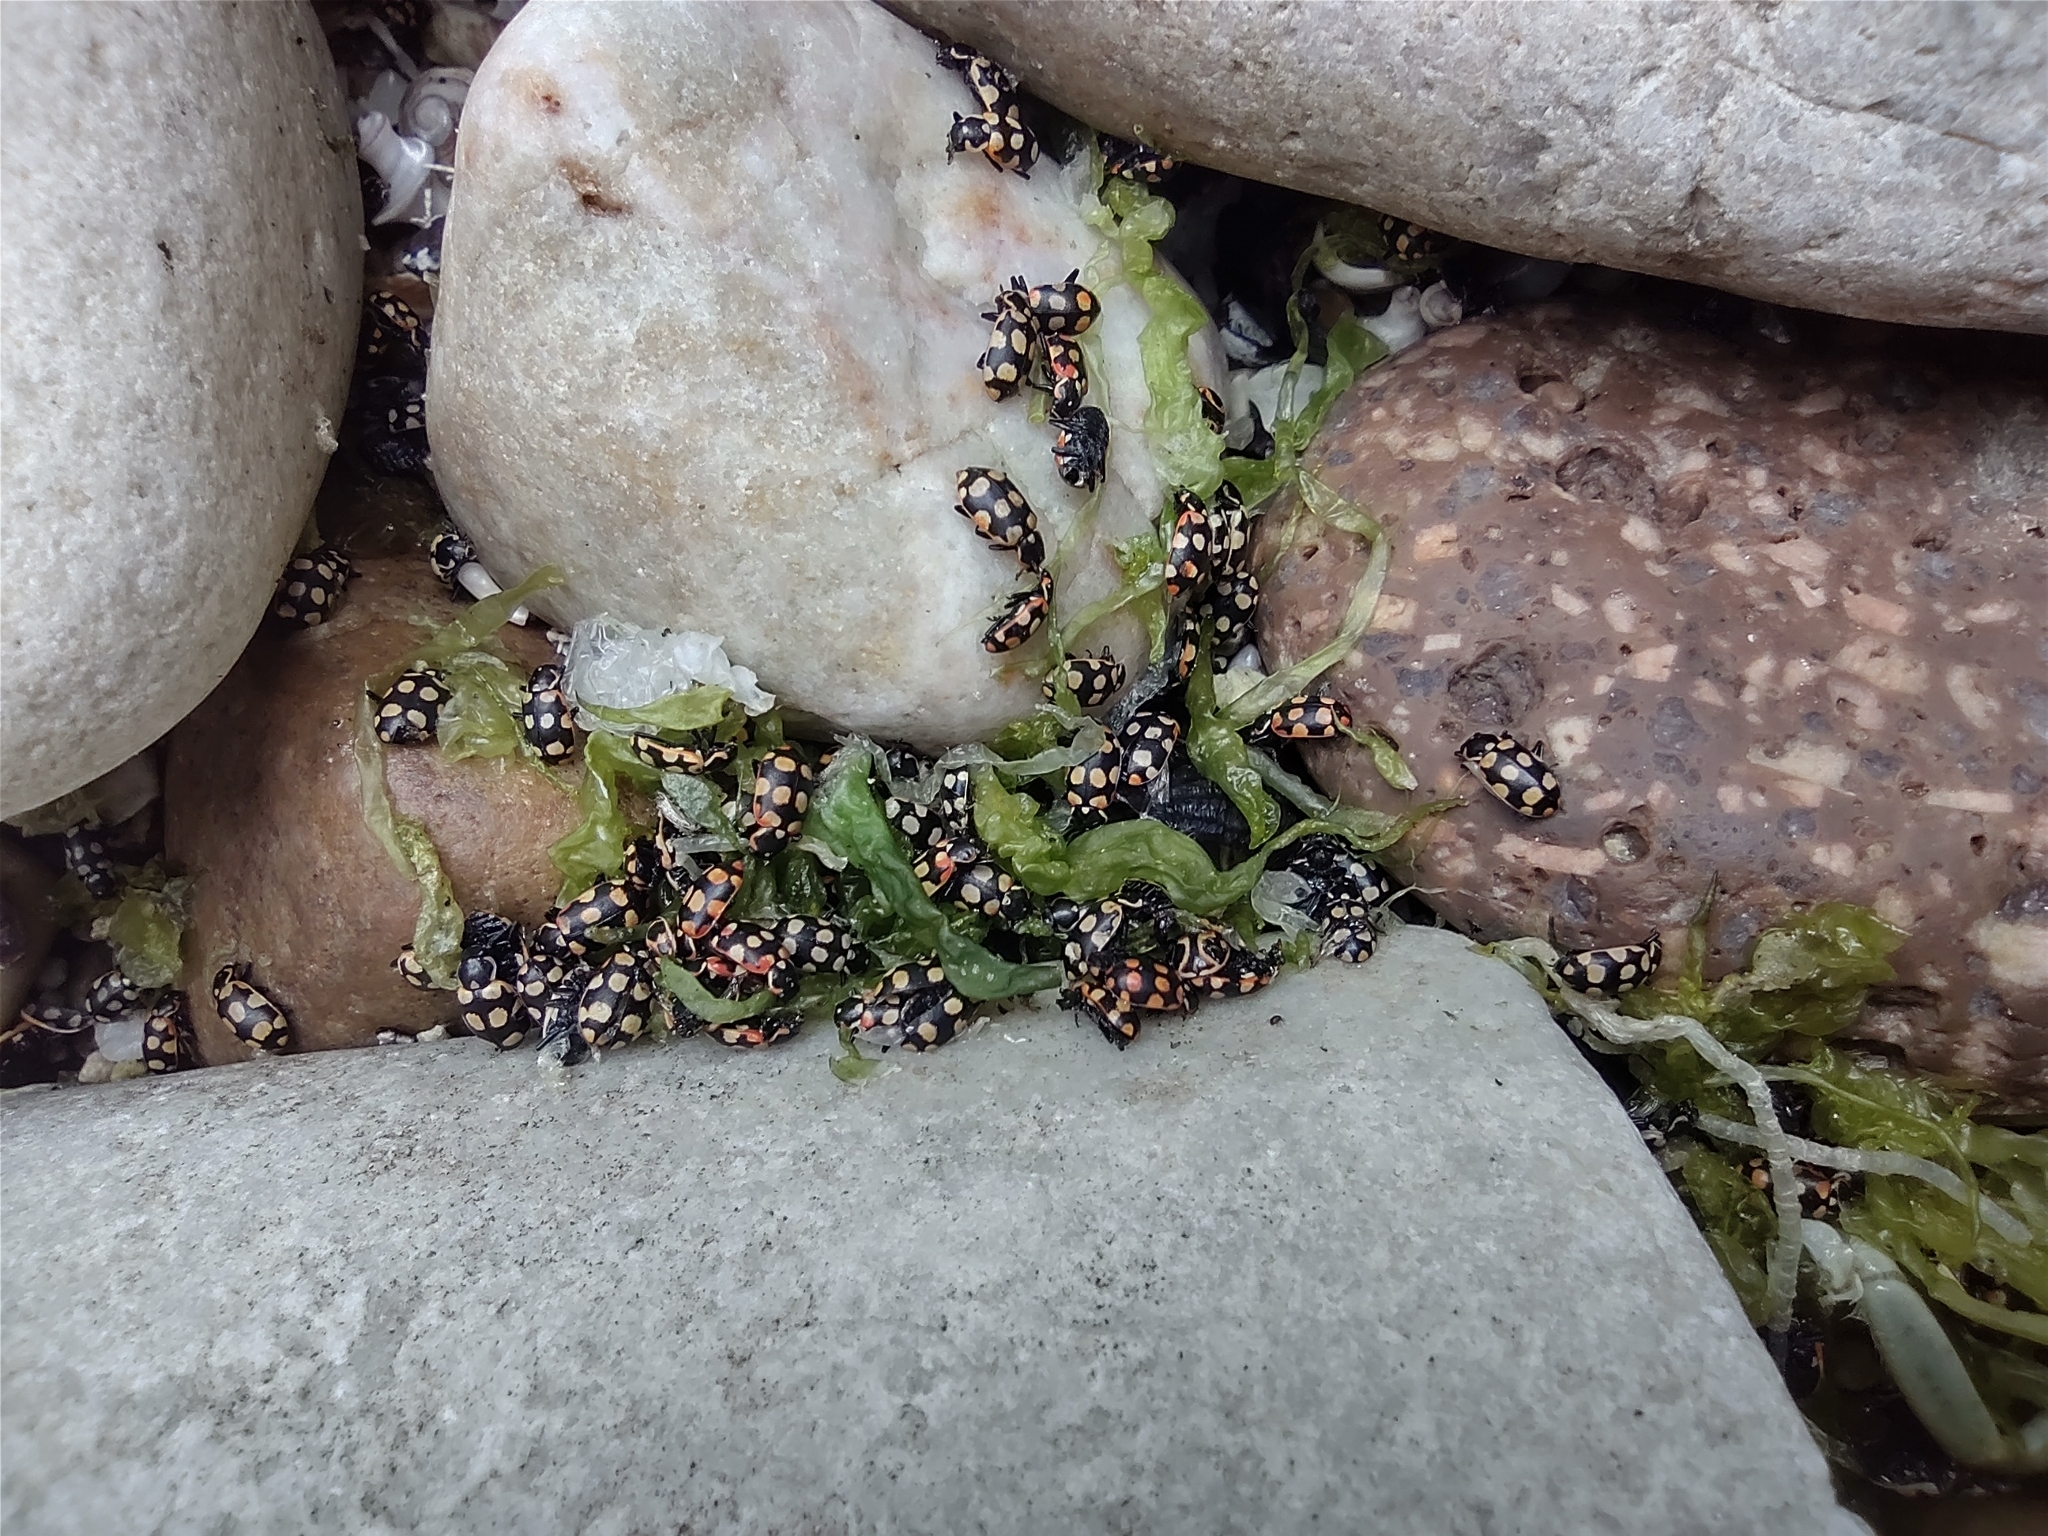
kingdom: Animalia
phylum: Arthropoda
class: Insecta
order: Coleoptera
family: Coccinellidae
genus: Eriopis
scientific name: Eriopis connexa
